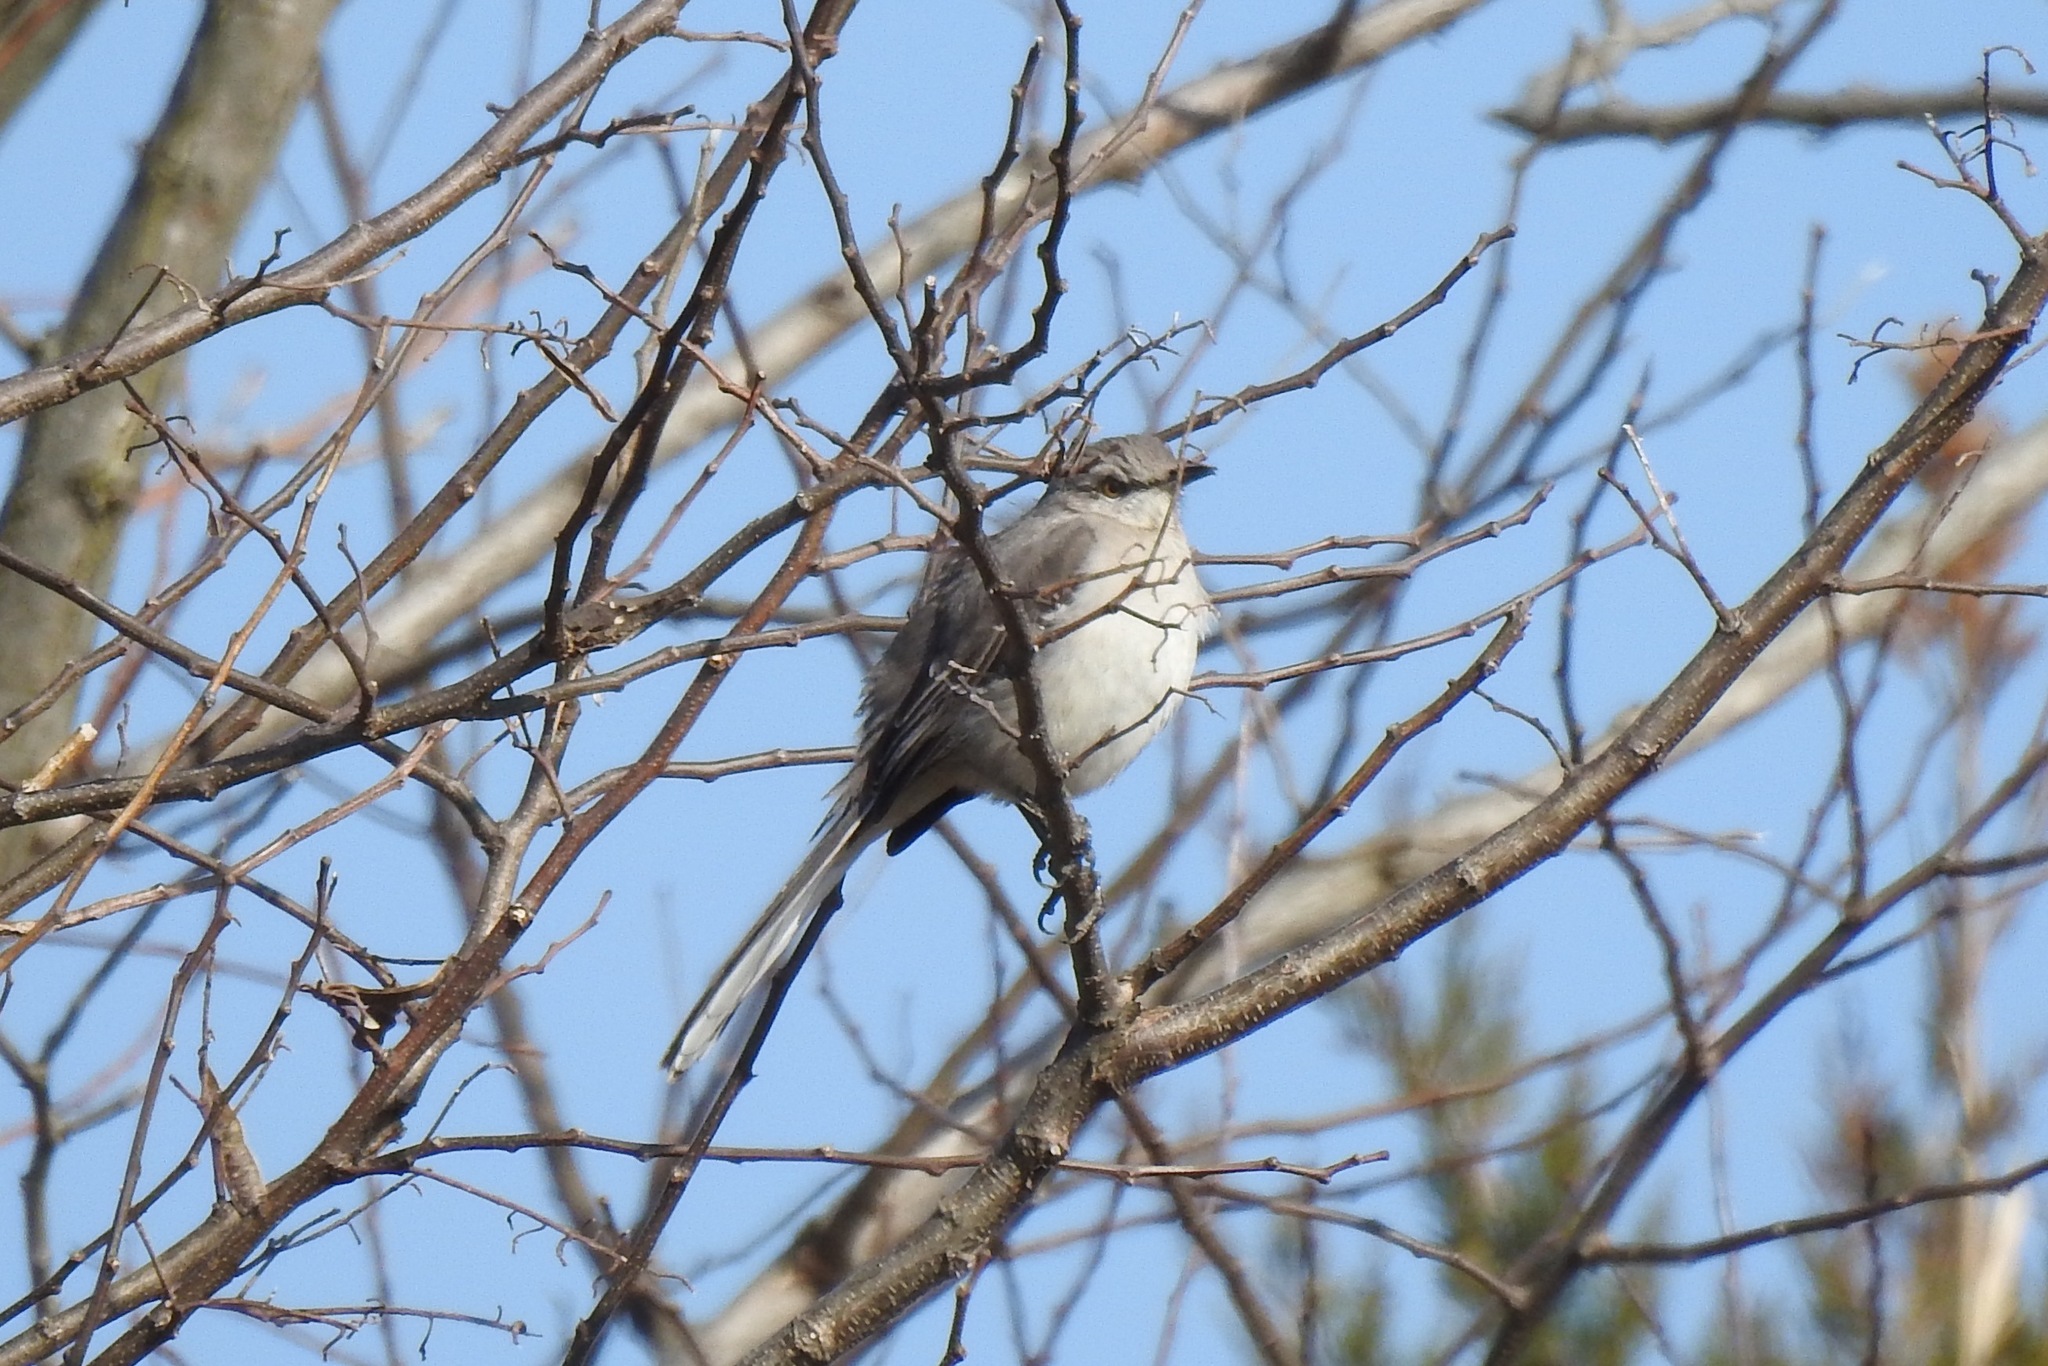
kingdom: Animalia
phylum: Chordata
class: Aves
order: Passeriformes
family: Mimidae
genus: Mimus
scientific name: Mimus polyglottos
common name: Northern mockingbird
